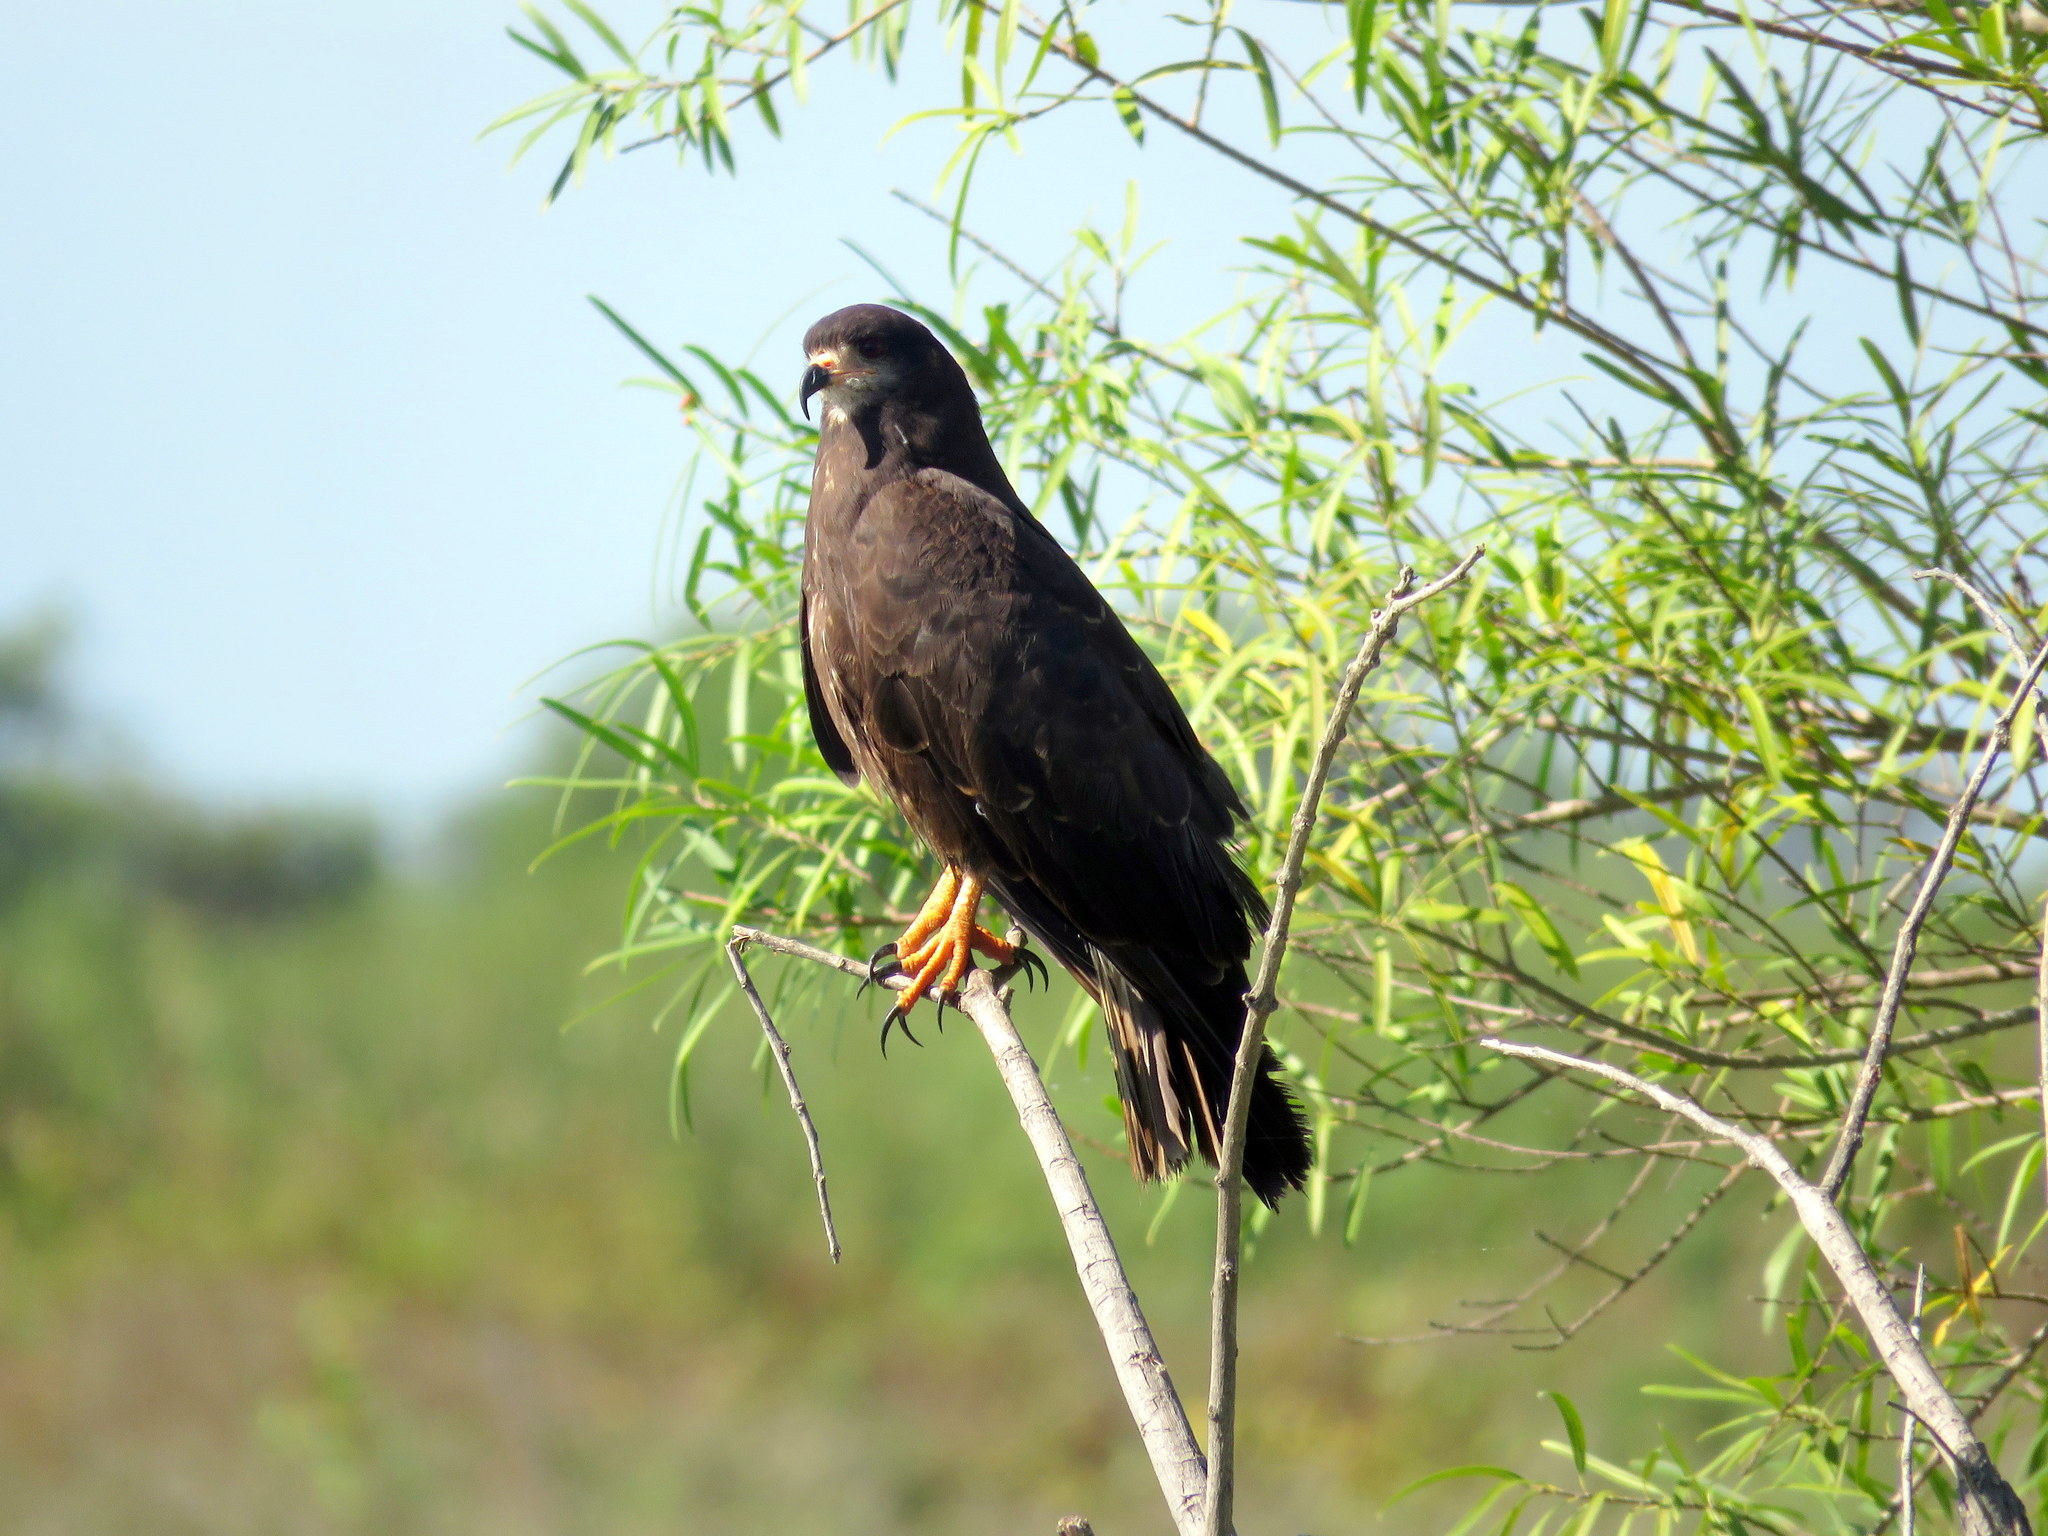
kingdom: Animalia
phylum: Chordata
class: Aves
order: Accipitriformes
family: Accipitridae
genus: Rostrhamus
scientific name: Rostrhamus sociabilis
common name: Snail kite
